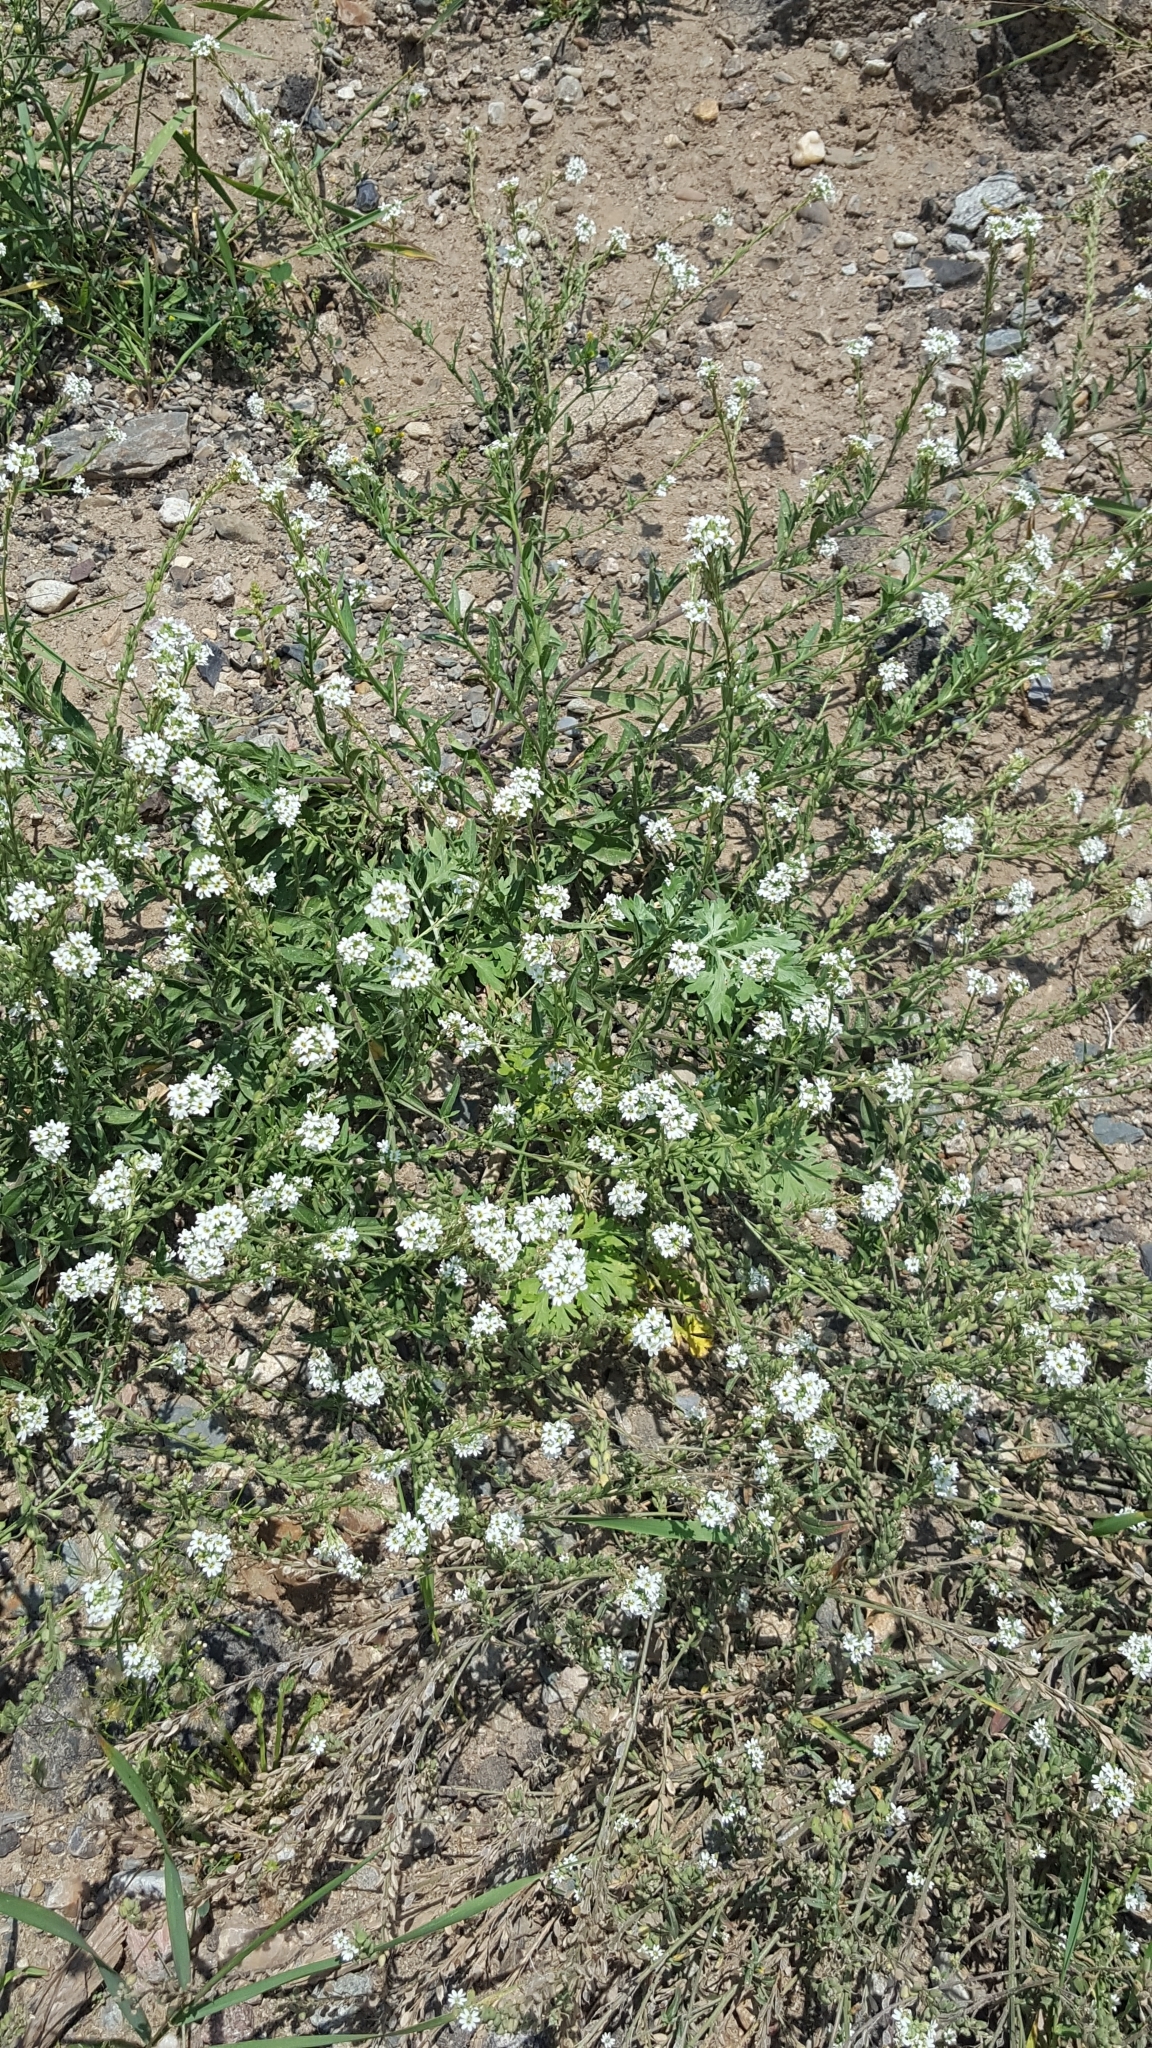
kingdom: Plantae
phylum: Tracheophyta
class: Magnoliopsida
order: Brassicales
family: Brassicaceae
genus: Berteroa
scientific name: Berteroa incana
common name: Hoary alison
